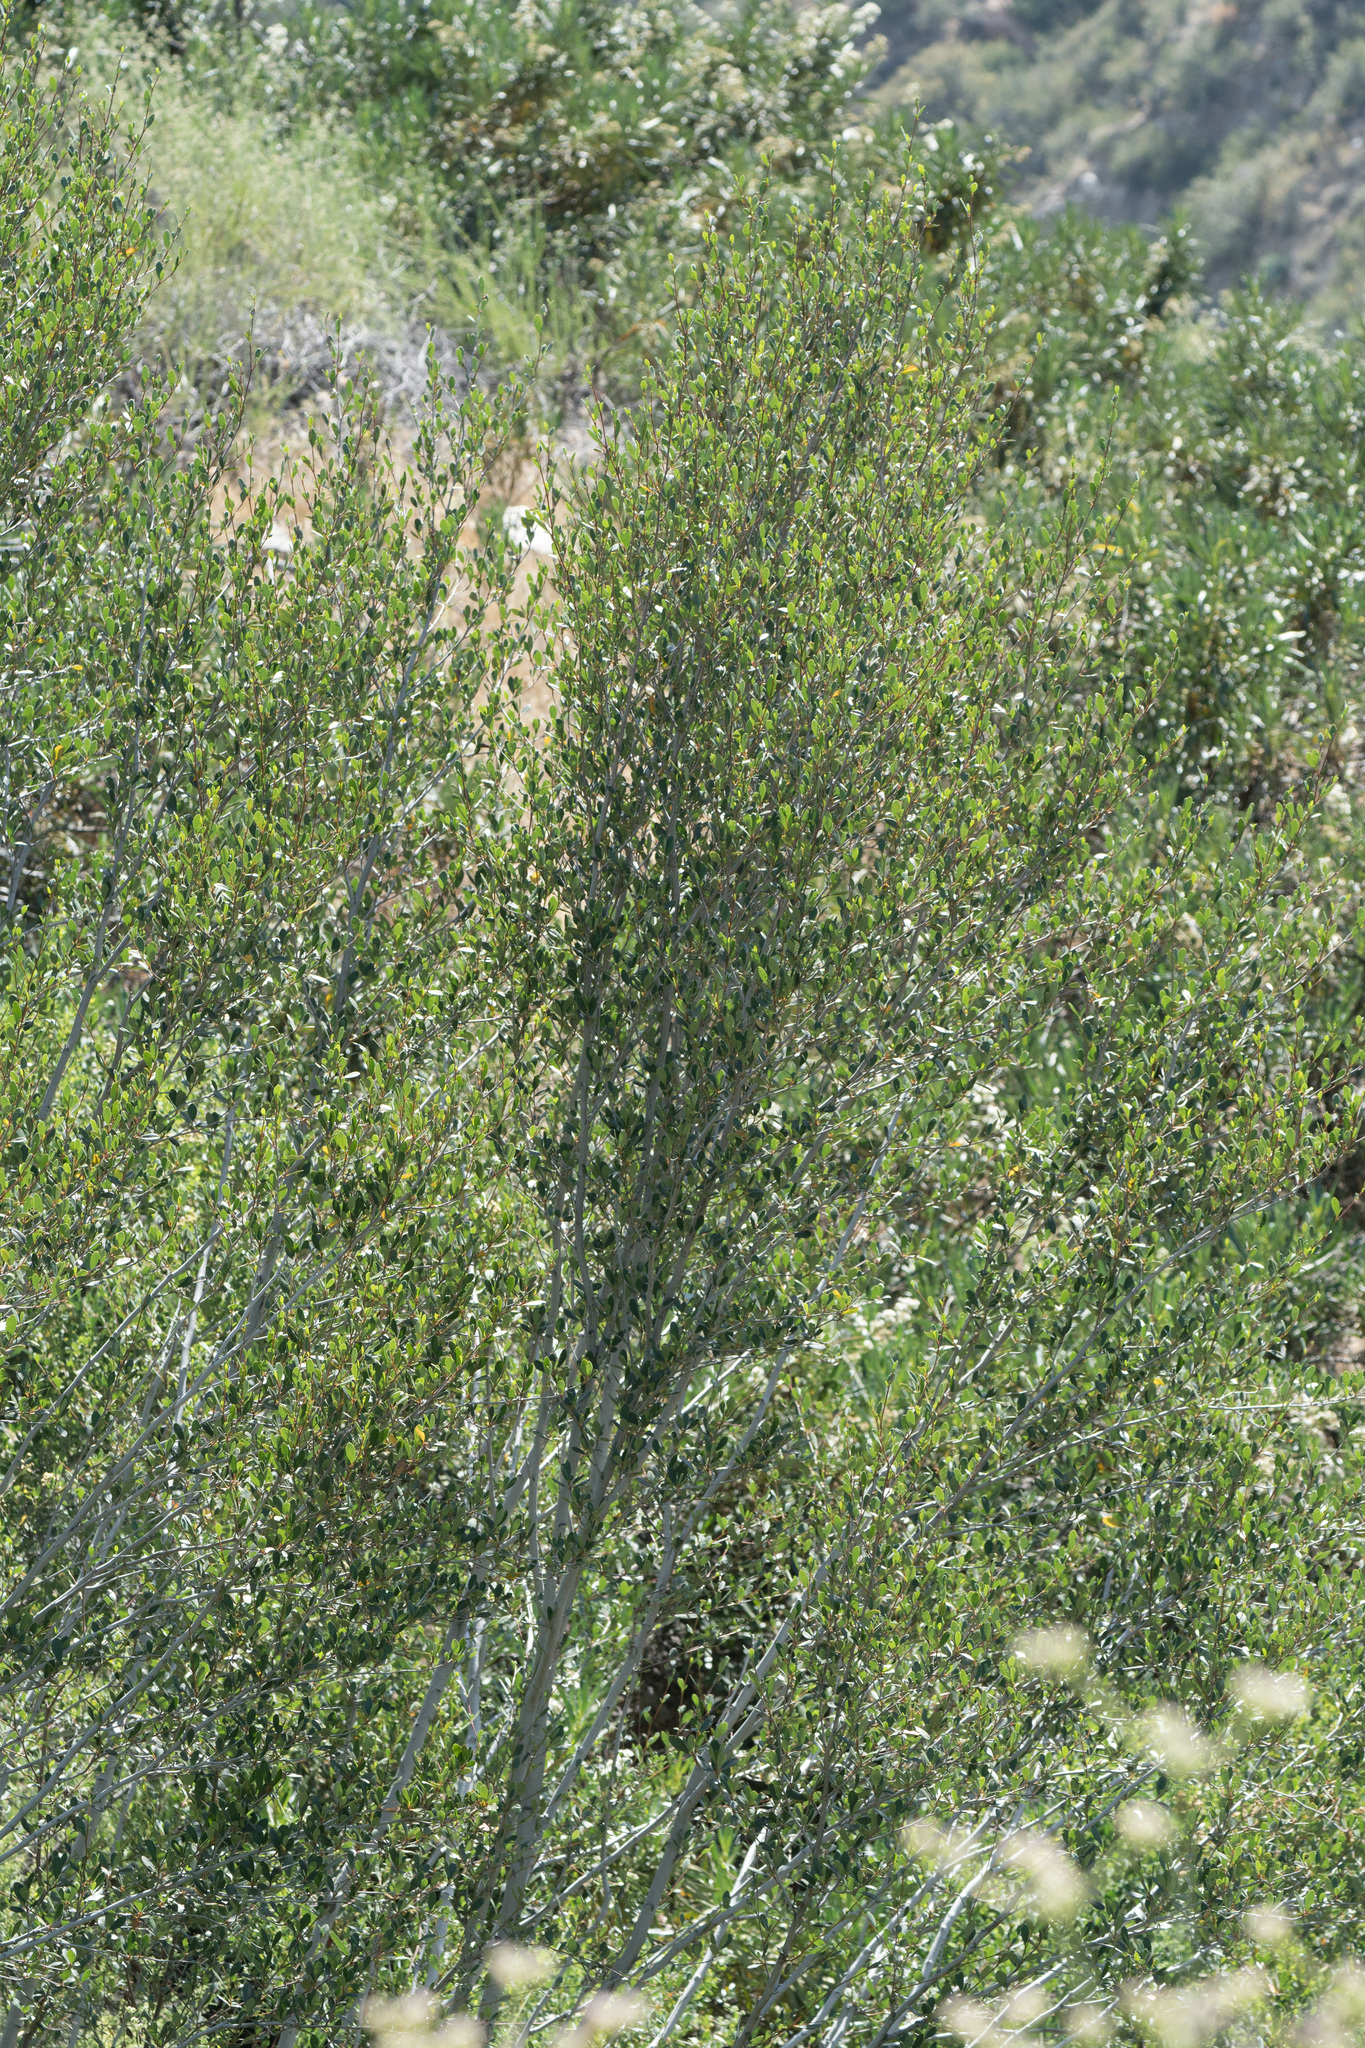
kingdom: Plantae
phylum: Tracheophyta
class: Magnoliopsida
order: Rosales
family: Rosaceae
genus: Cercocarpus
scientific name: Cercocarpus betuloides
